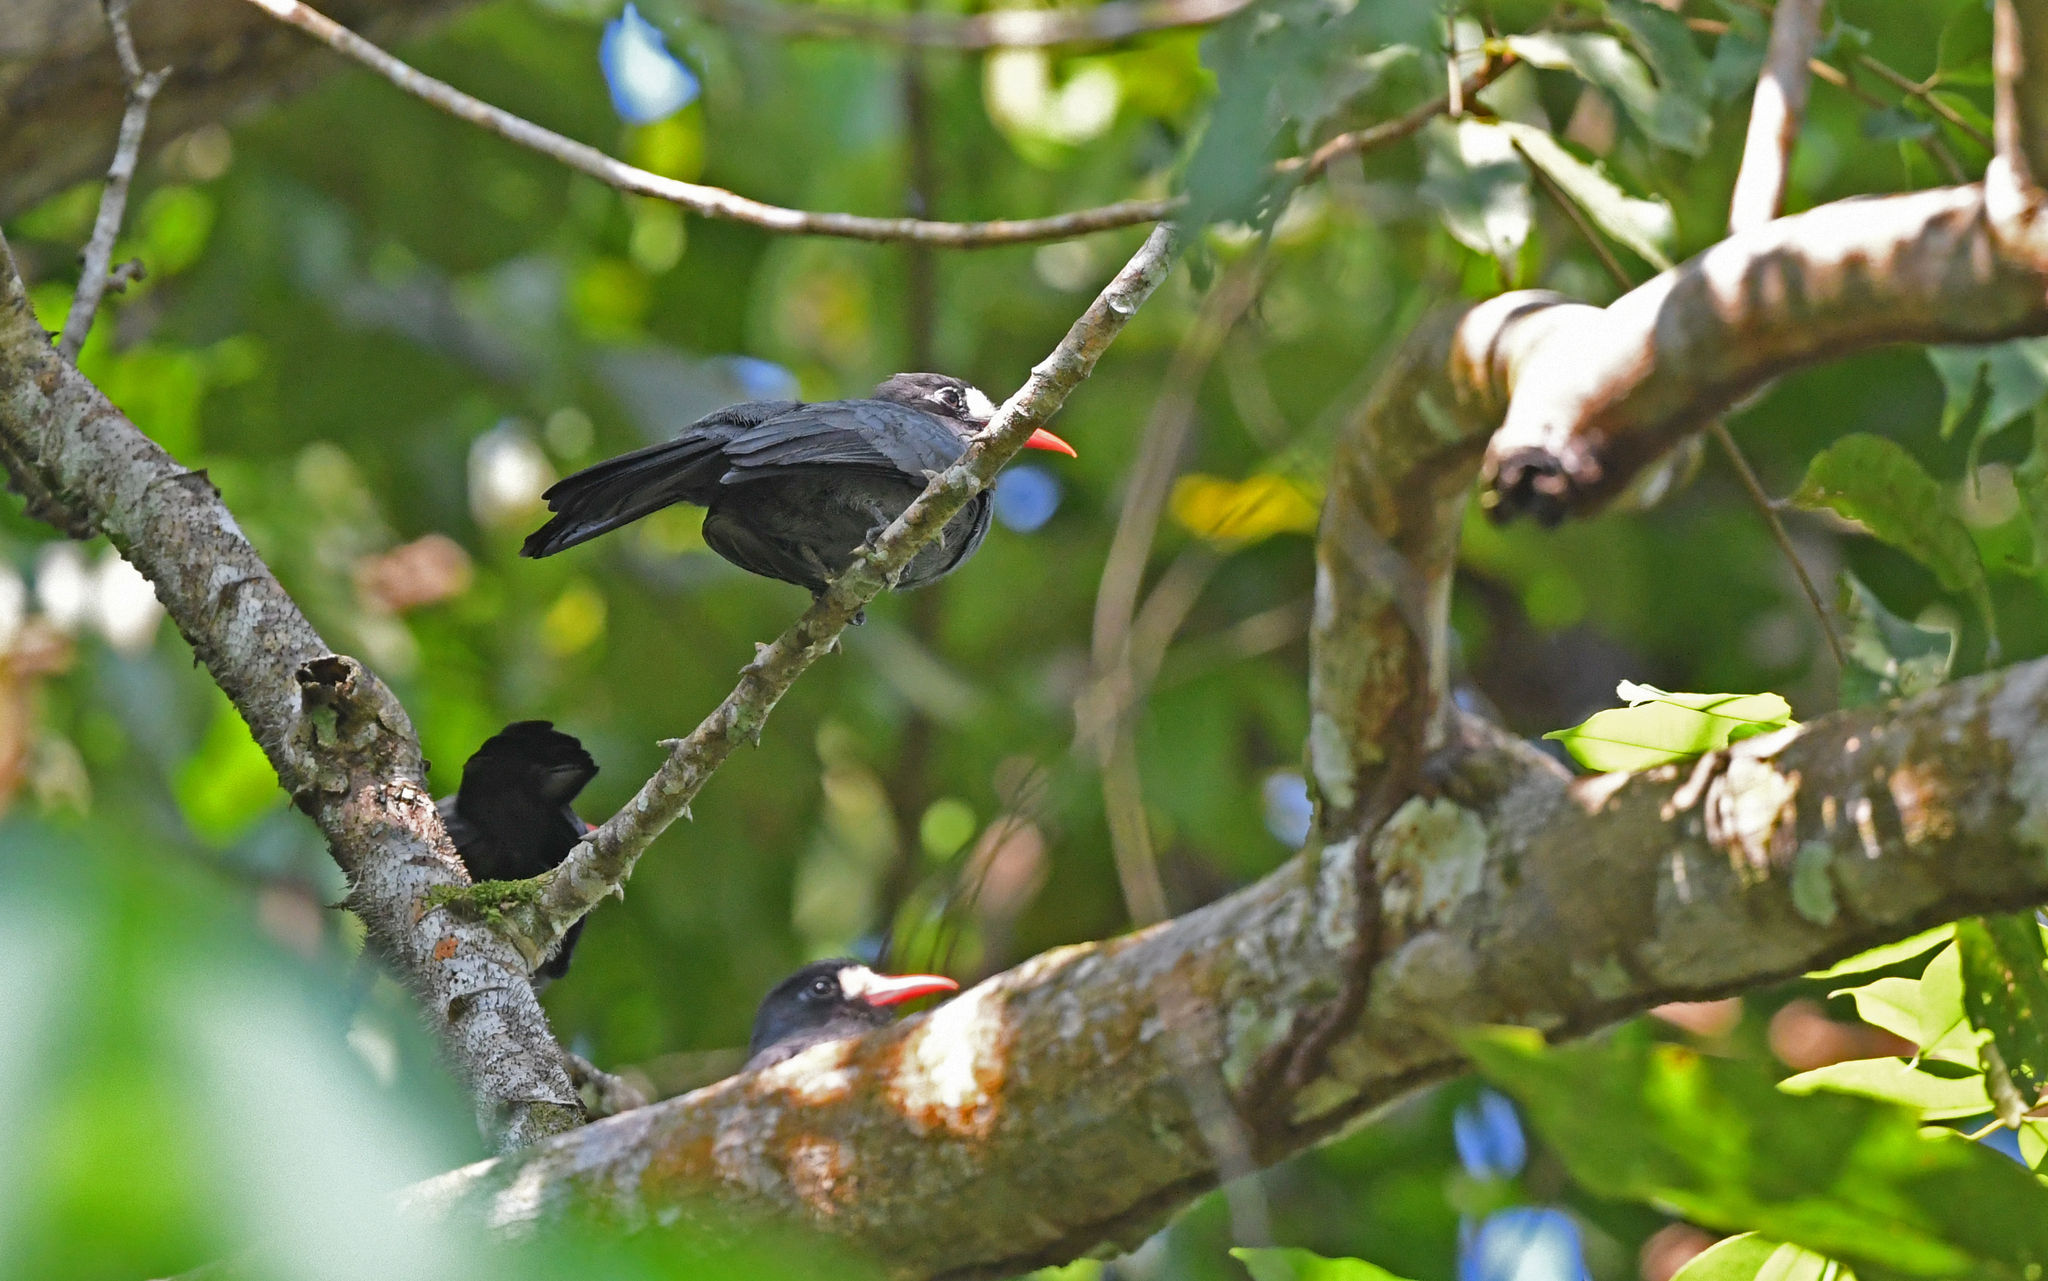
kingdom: Animalia
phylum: Chordata
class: Aves
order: Piciformes
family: Bucconidae
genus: Monasa
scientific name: Monasa morphoeus
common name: White-fronted nunbird
